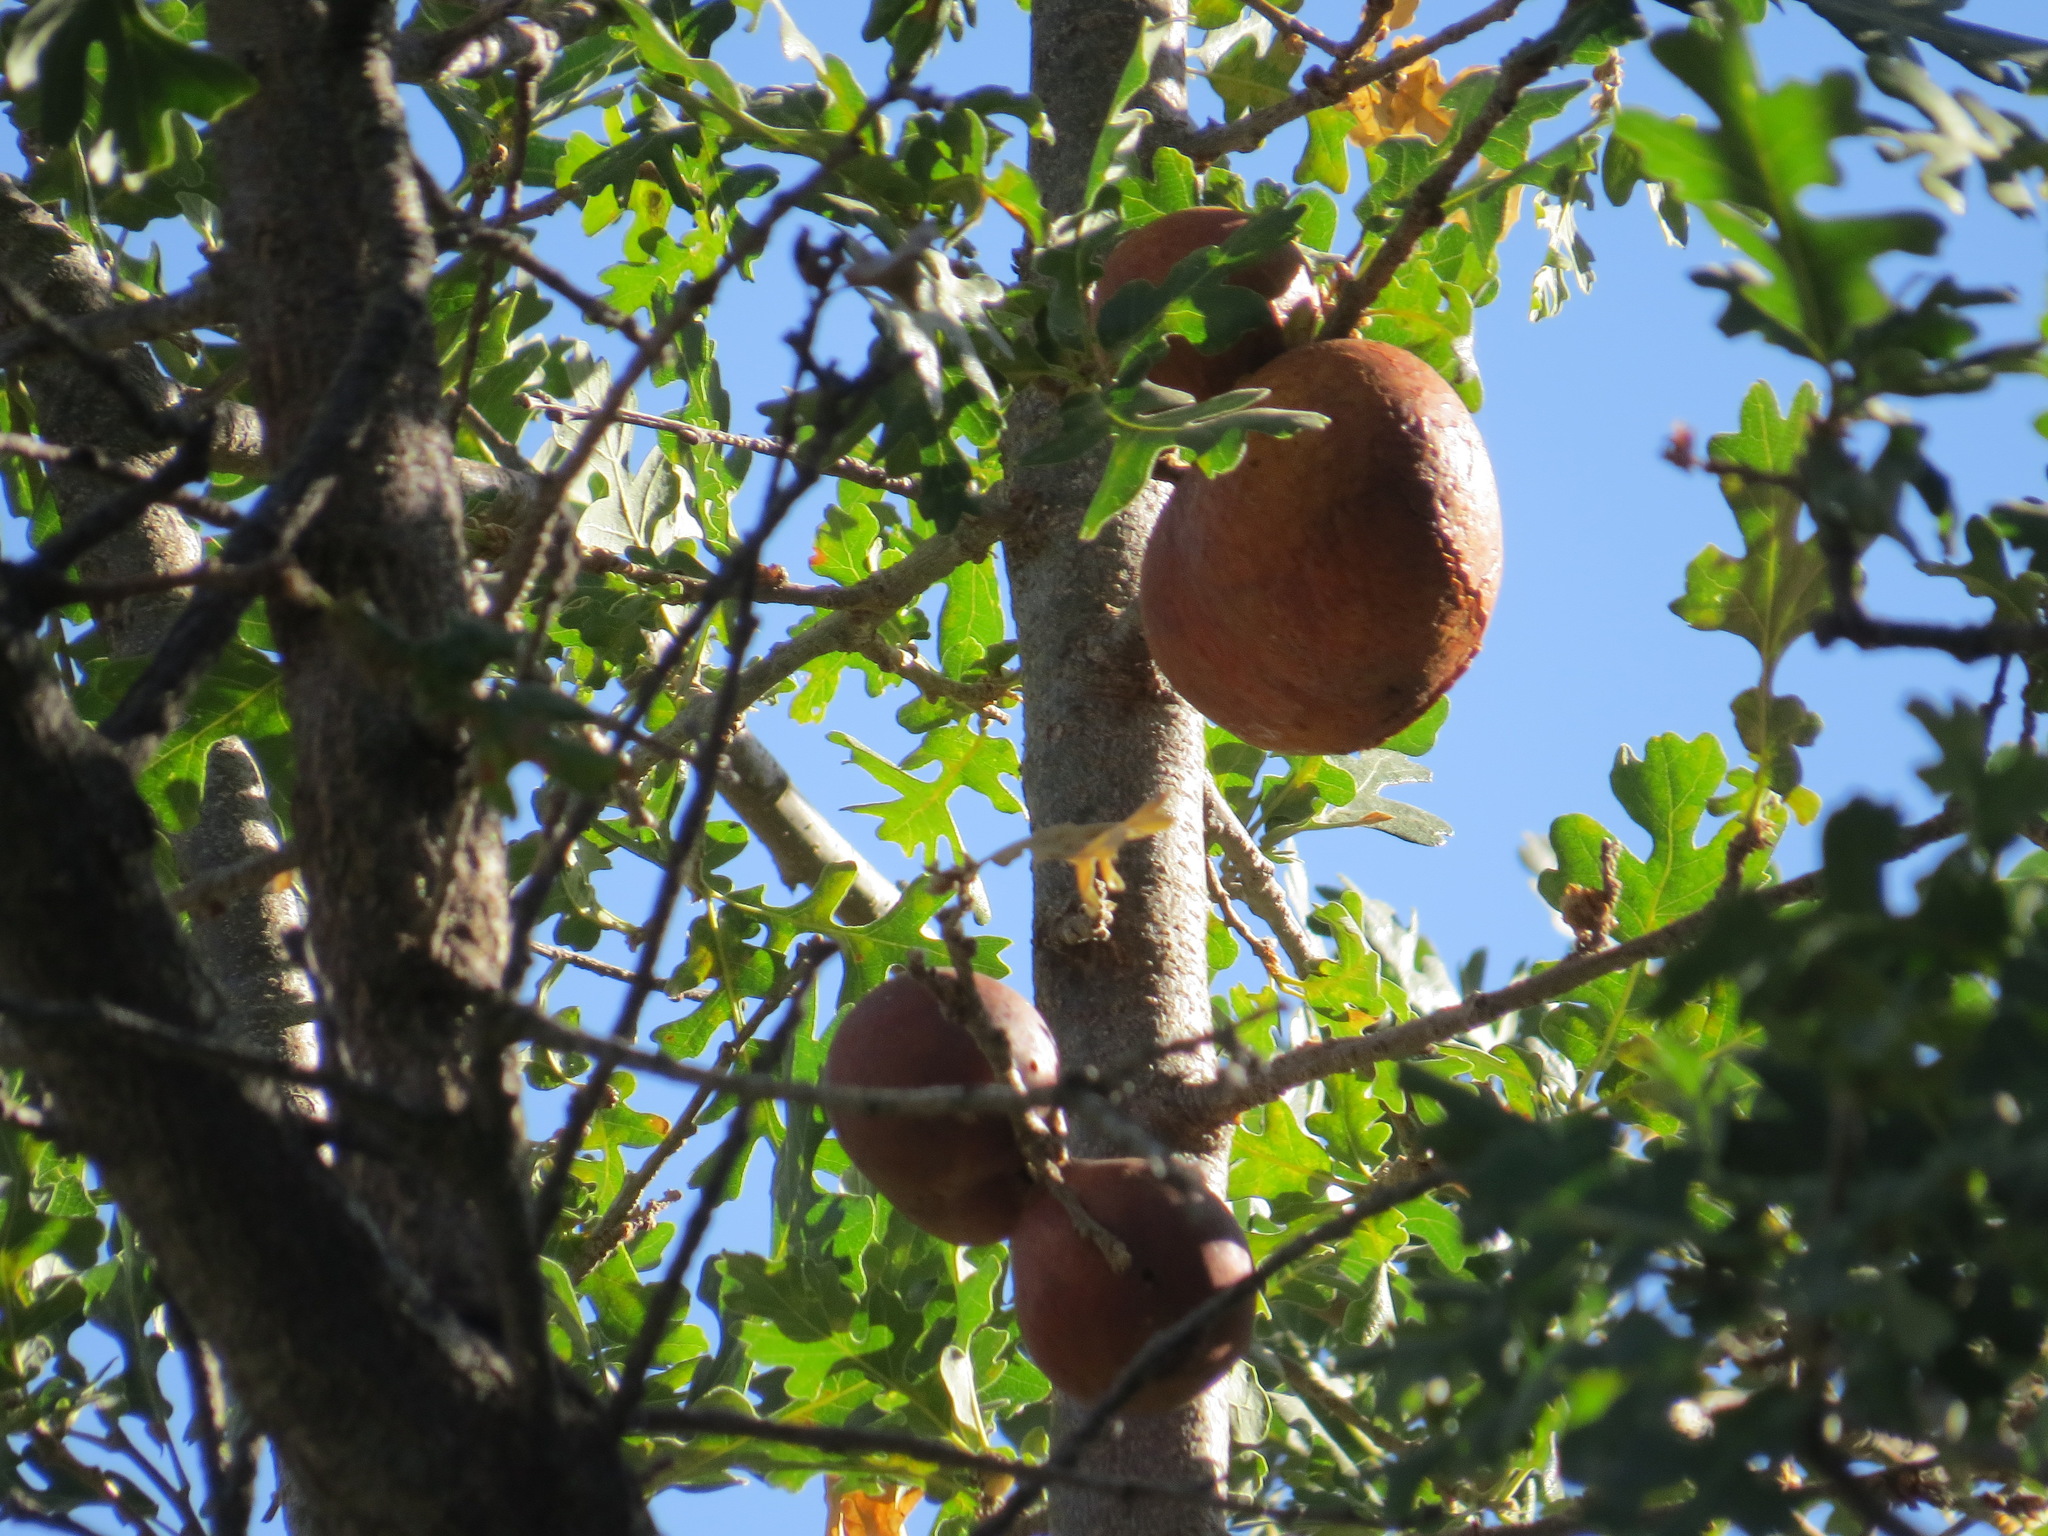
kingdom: Animalia
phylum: Arthropoda
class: Insecta
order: Hymenoptera
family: Cynipidae
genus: Andricus
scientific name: Andricus quercuscalifornicus
